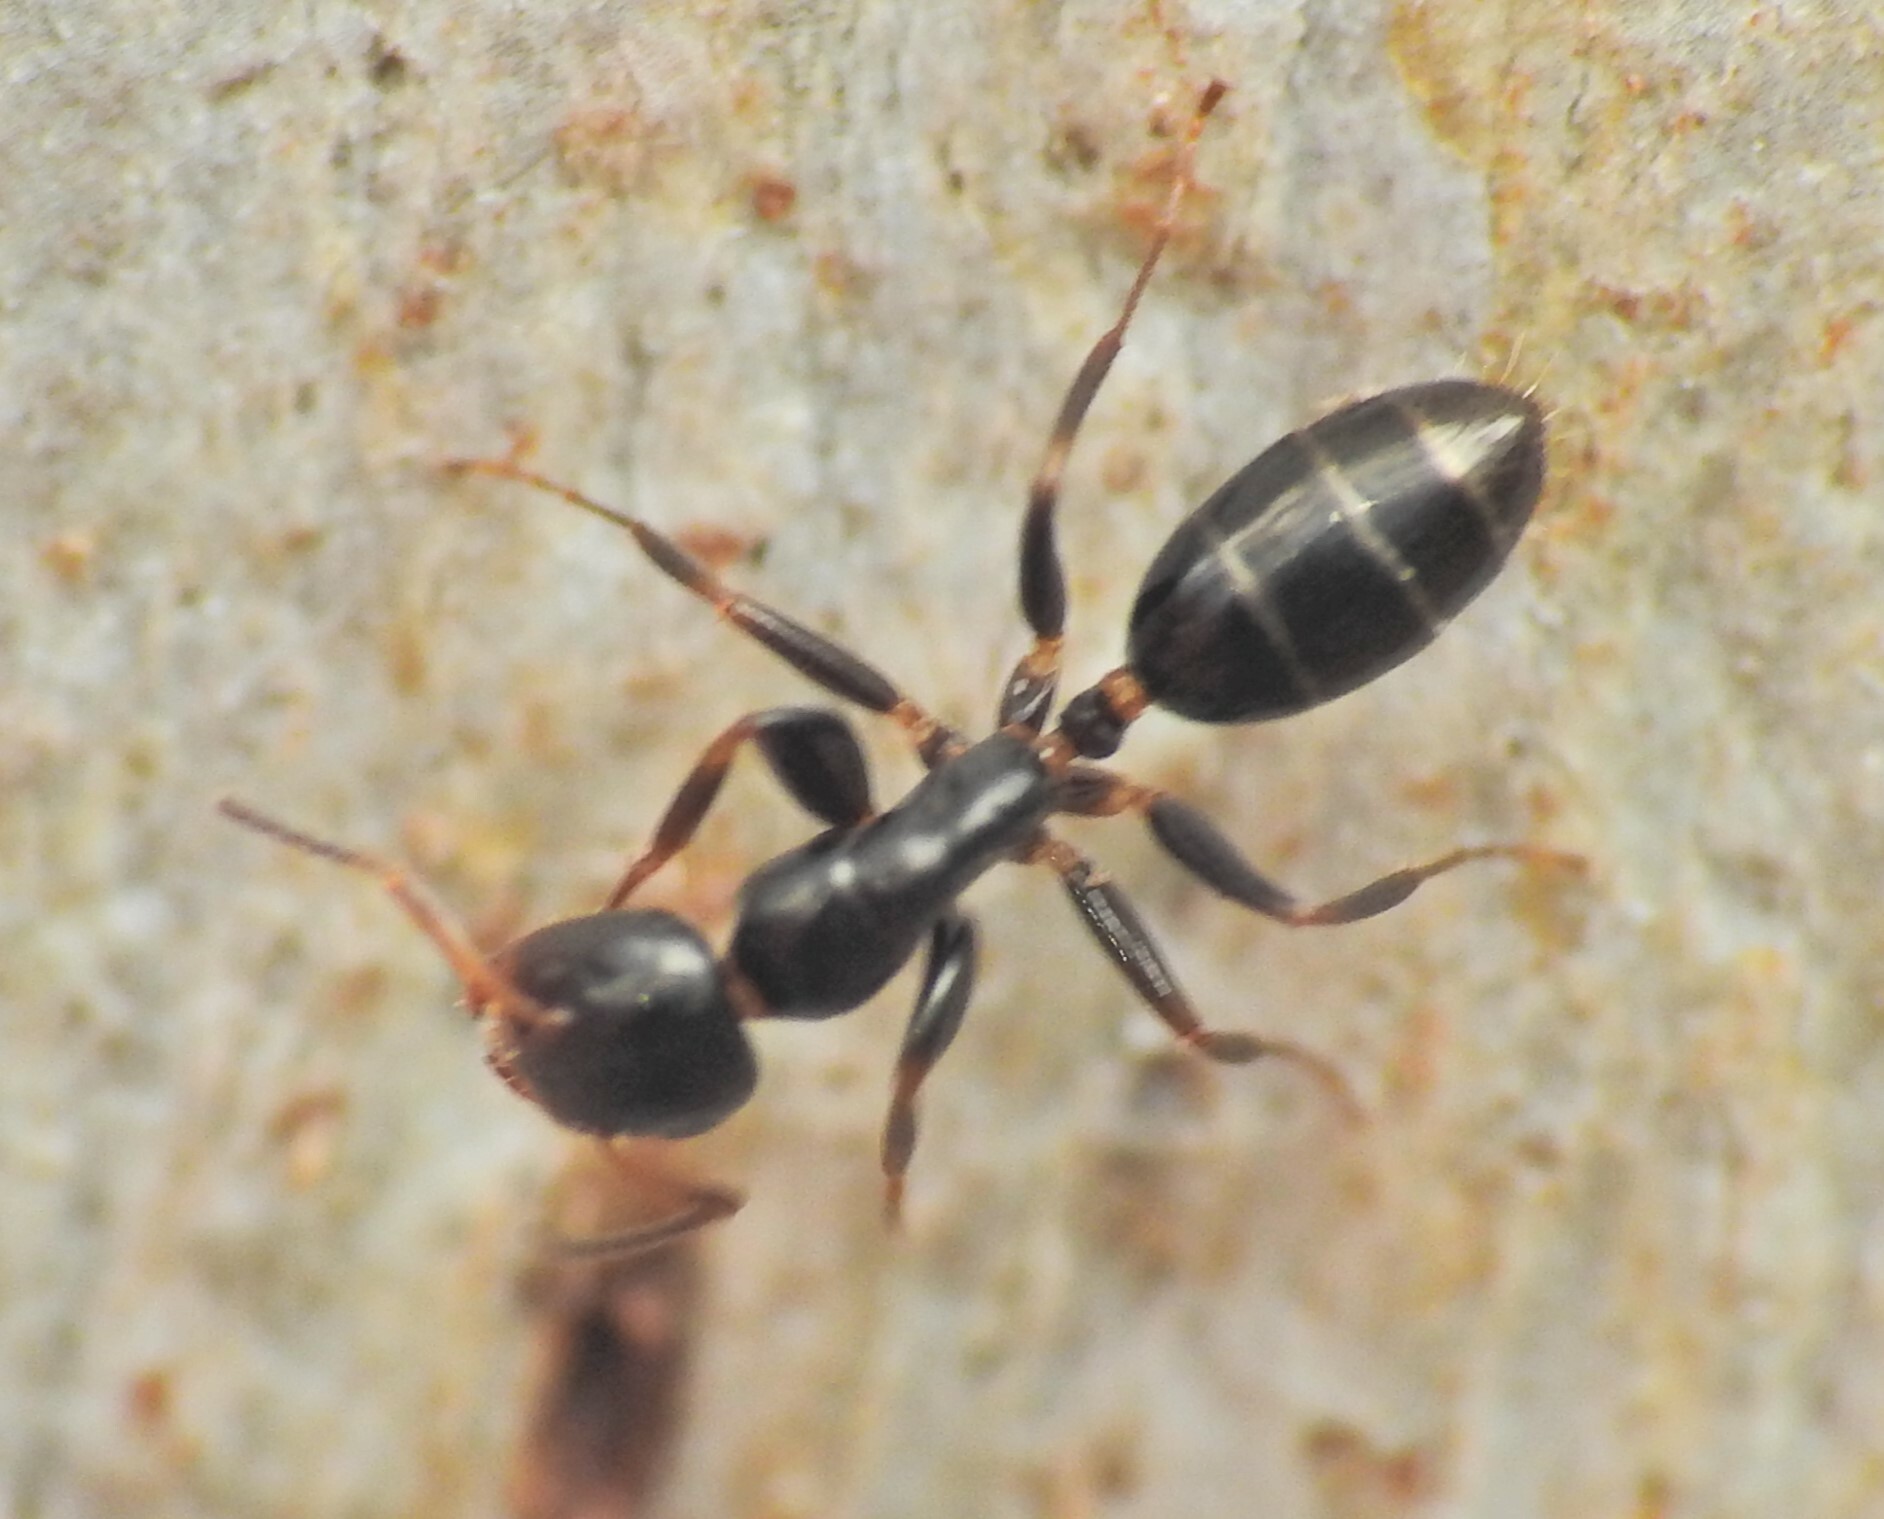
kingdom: Animalia
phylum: Arthropoda
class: Insecta
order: Hymenoptera
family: Formicidae
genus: Colobopsis
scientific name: Colobopsis
